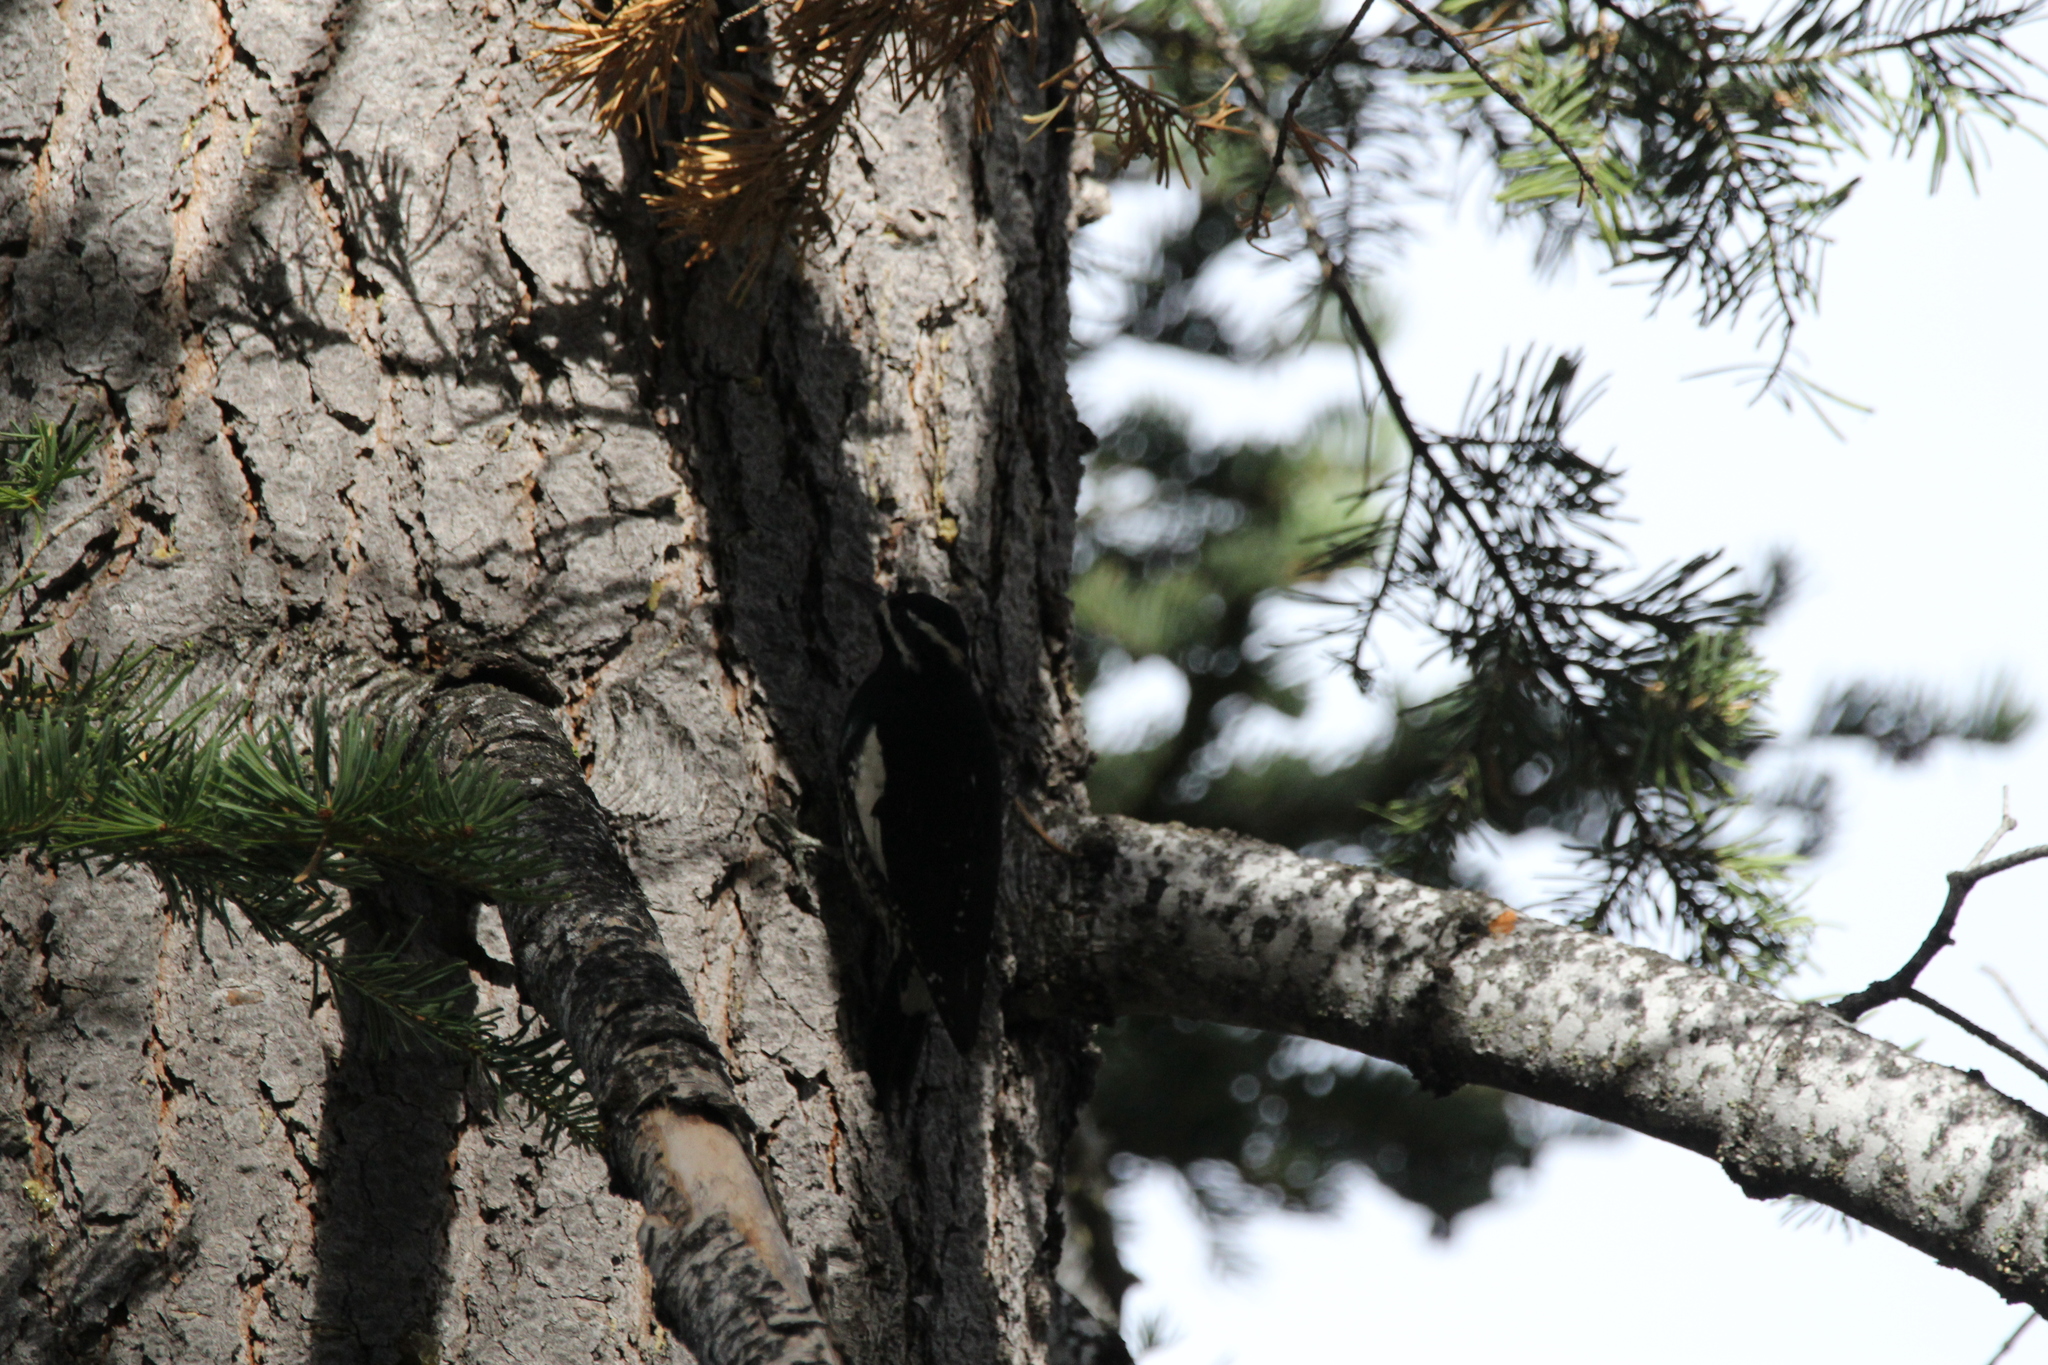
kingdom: Animalia
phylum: Chordata
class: Aves
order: Piciformes
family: Picidae
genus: Sphyrapicus
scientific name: Sphyrapicus thyroideus
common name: Williamson's sapsucker
